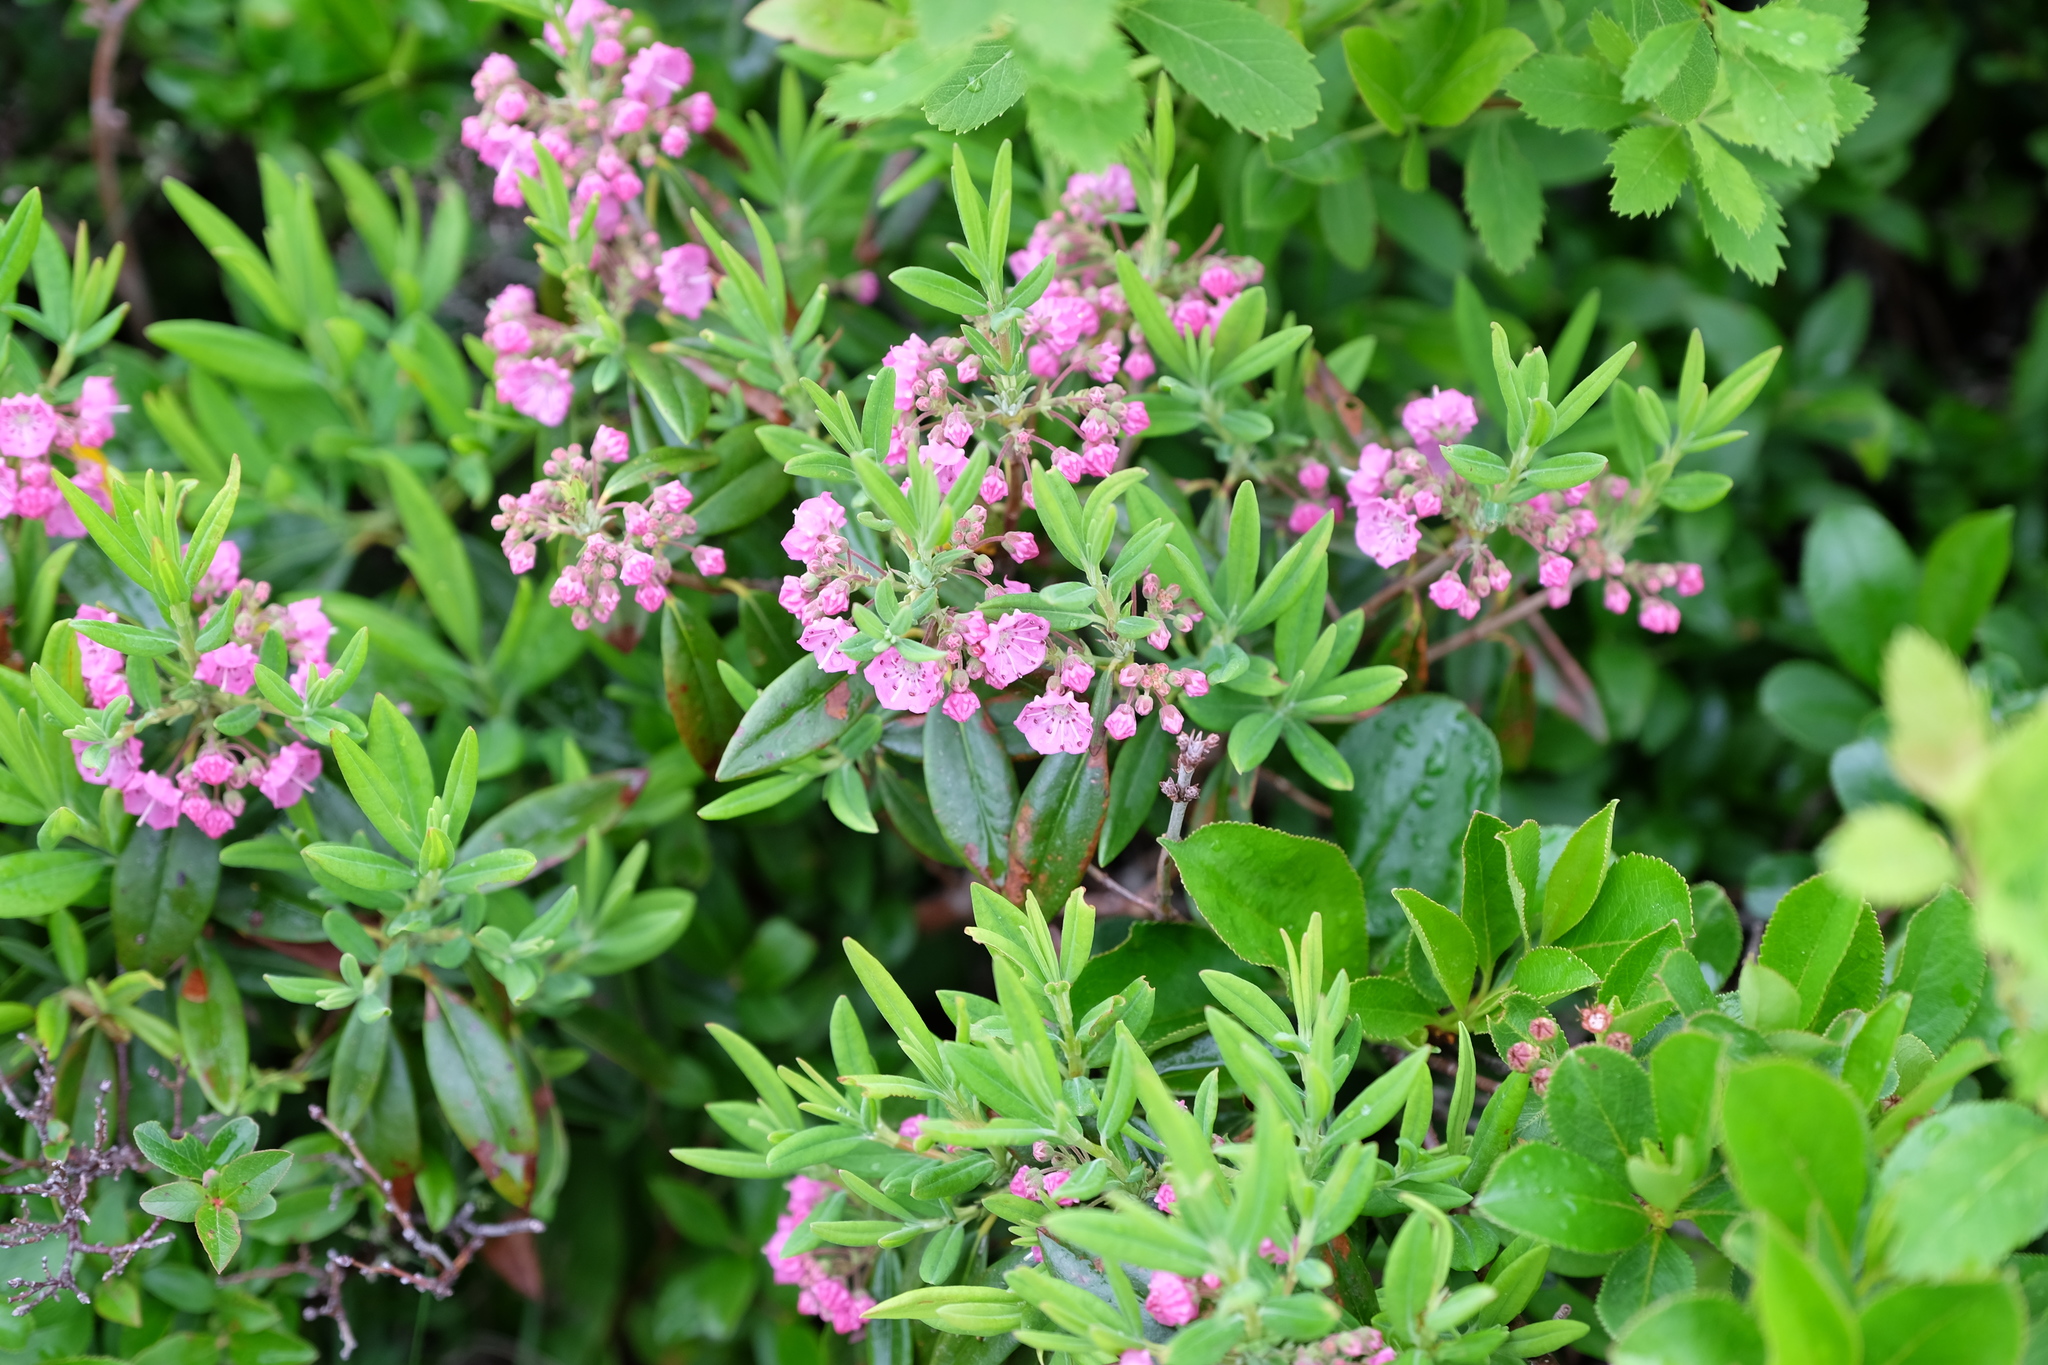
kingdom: Plantae
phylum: Tracheophyta
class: Magnoliopsida
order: Ericales
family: Ericaceae
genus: Kalmia
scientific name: Kalmia polifolia
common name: Bog-laurel
